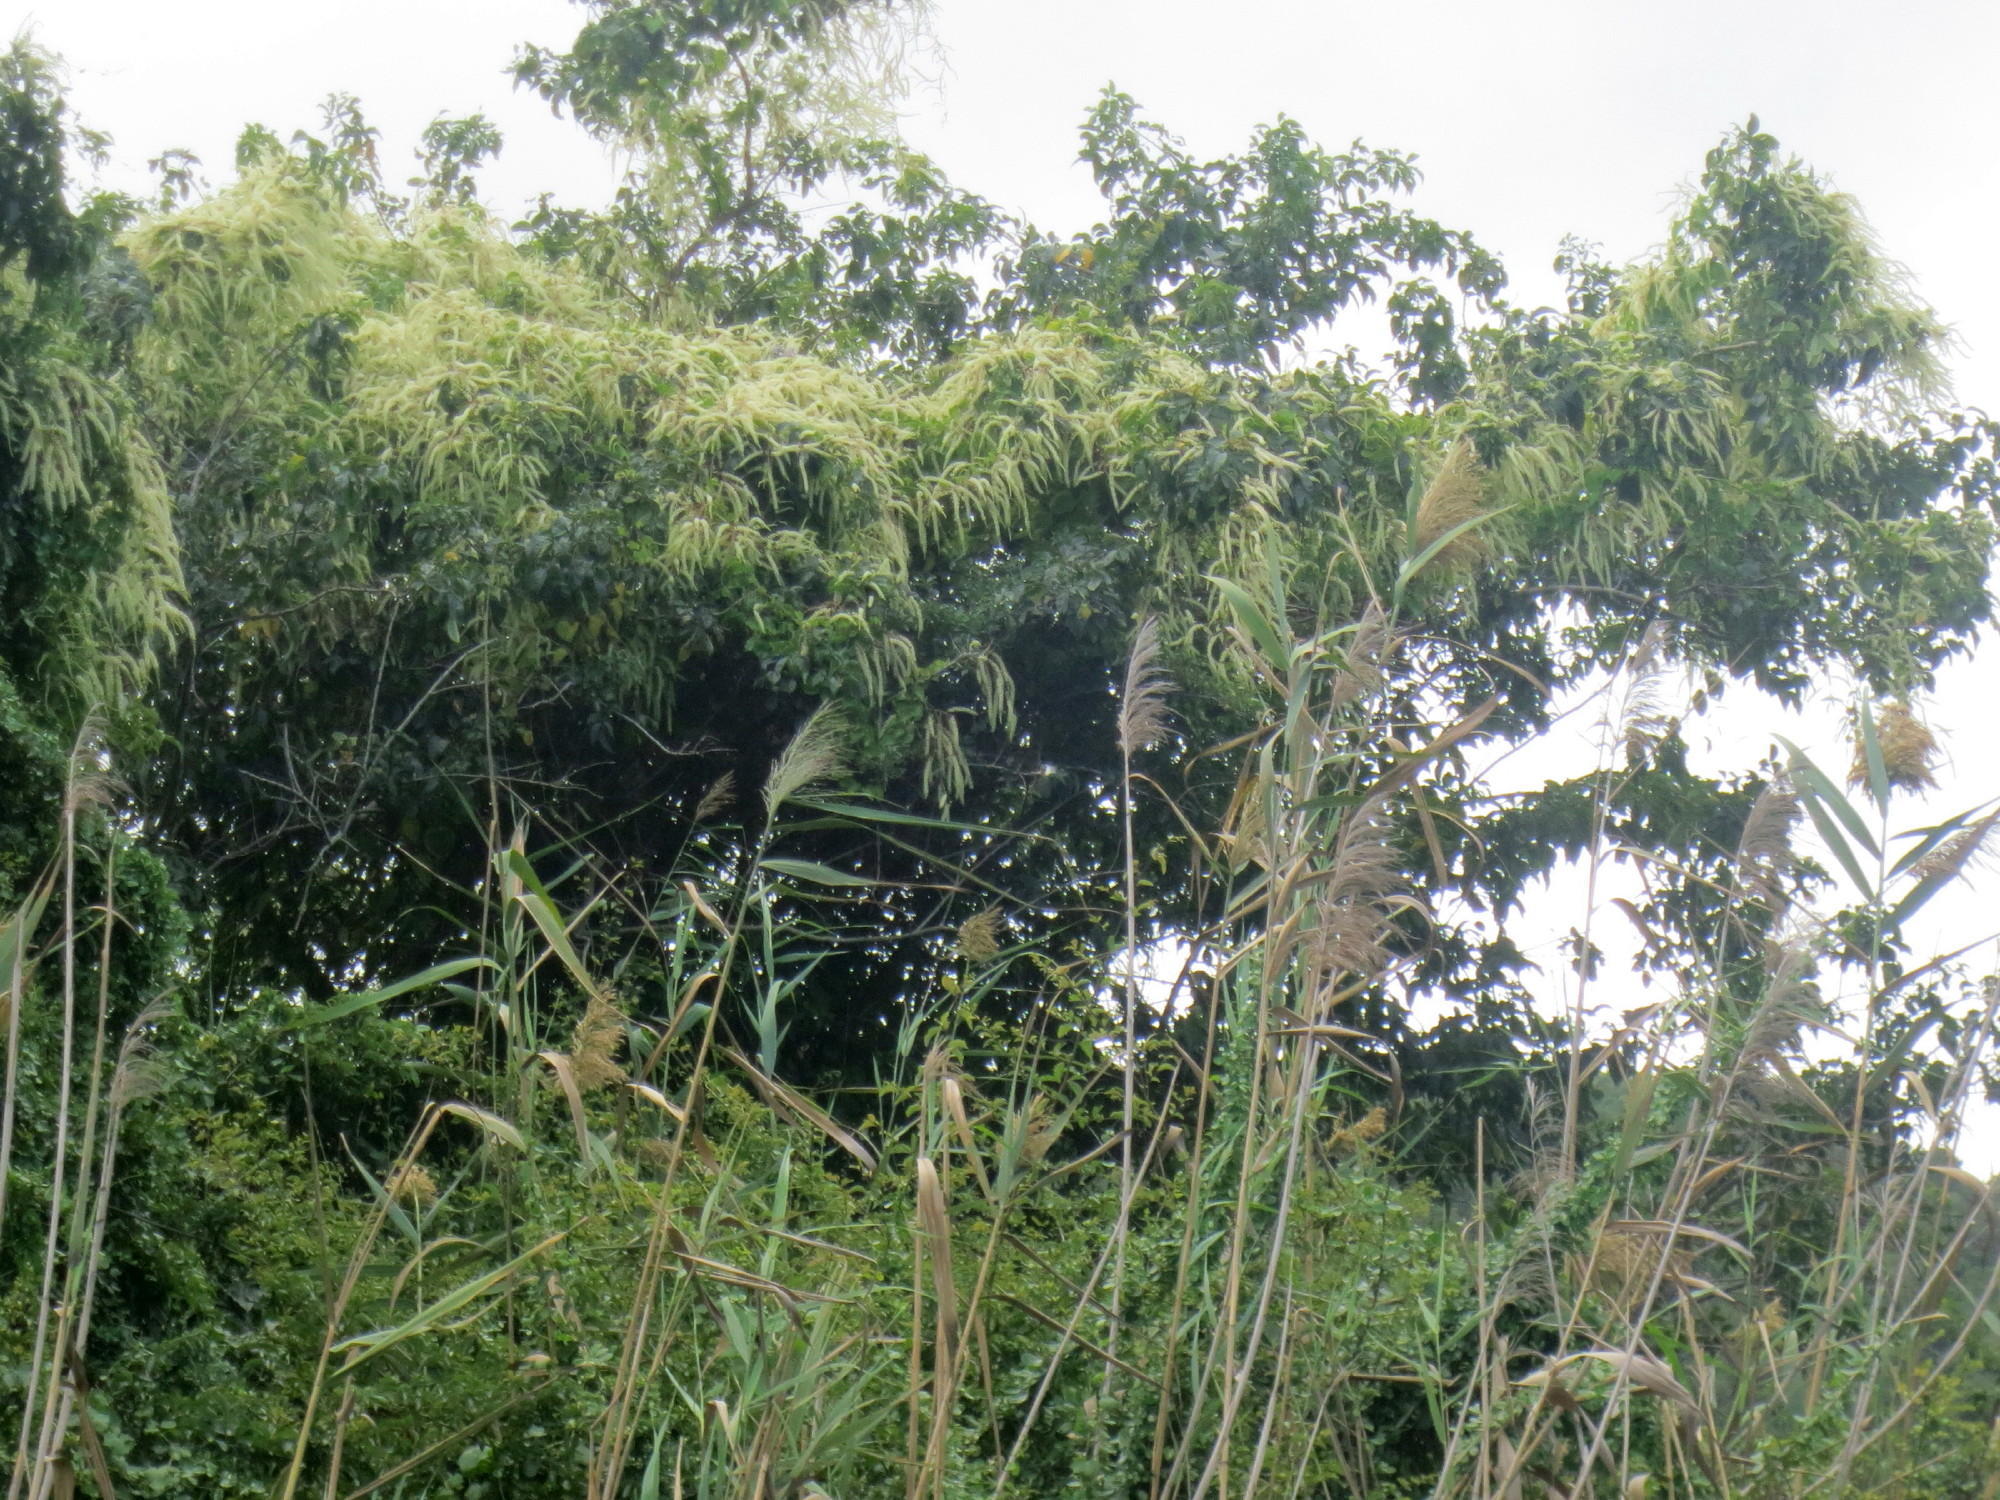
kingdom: Plantae
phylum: Tracheophyta
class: Magnoliopsida
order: Caryophyllales
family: Basellaceae
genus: Anredera
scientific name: Anredera cordifolia
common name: Heartleaf madeiravine
